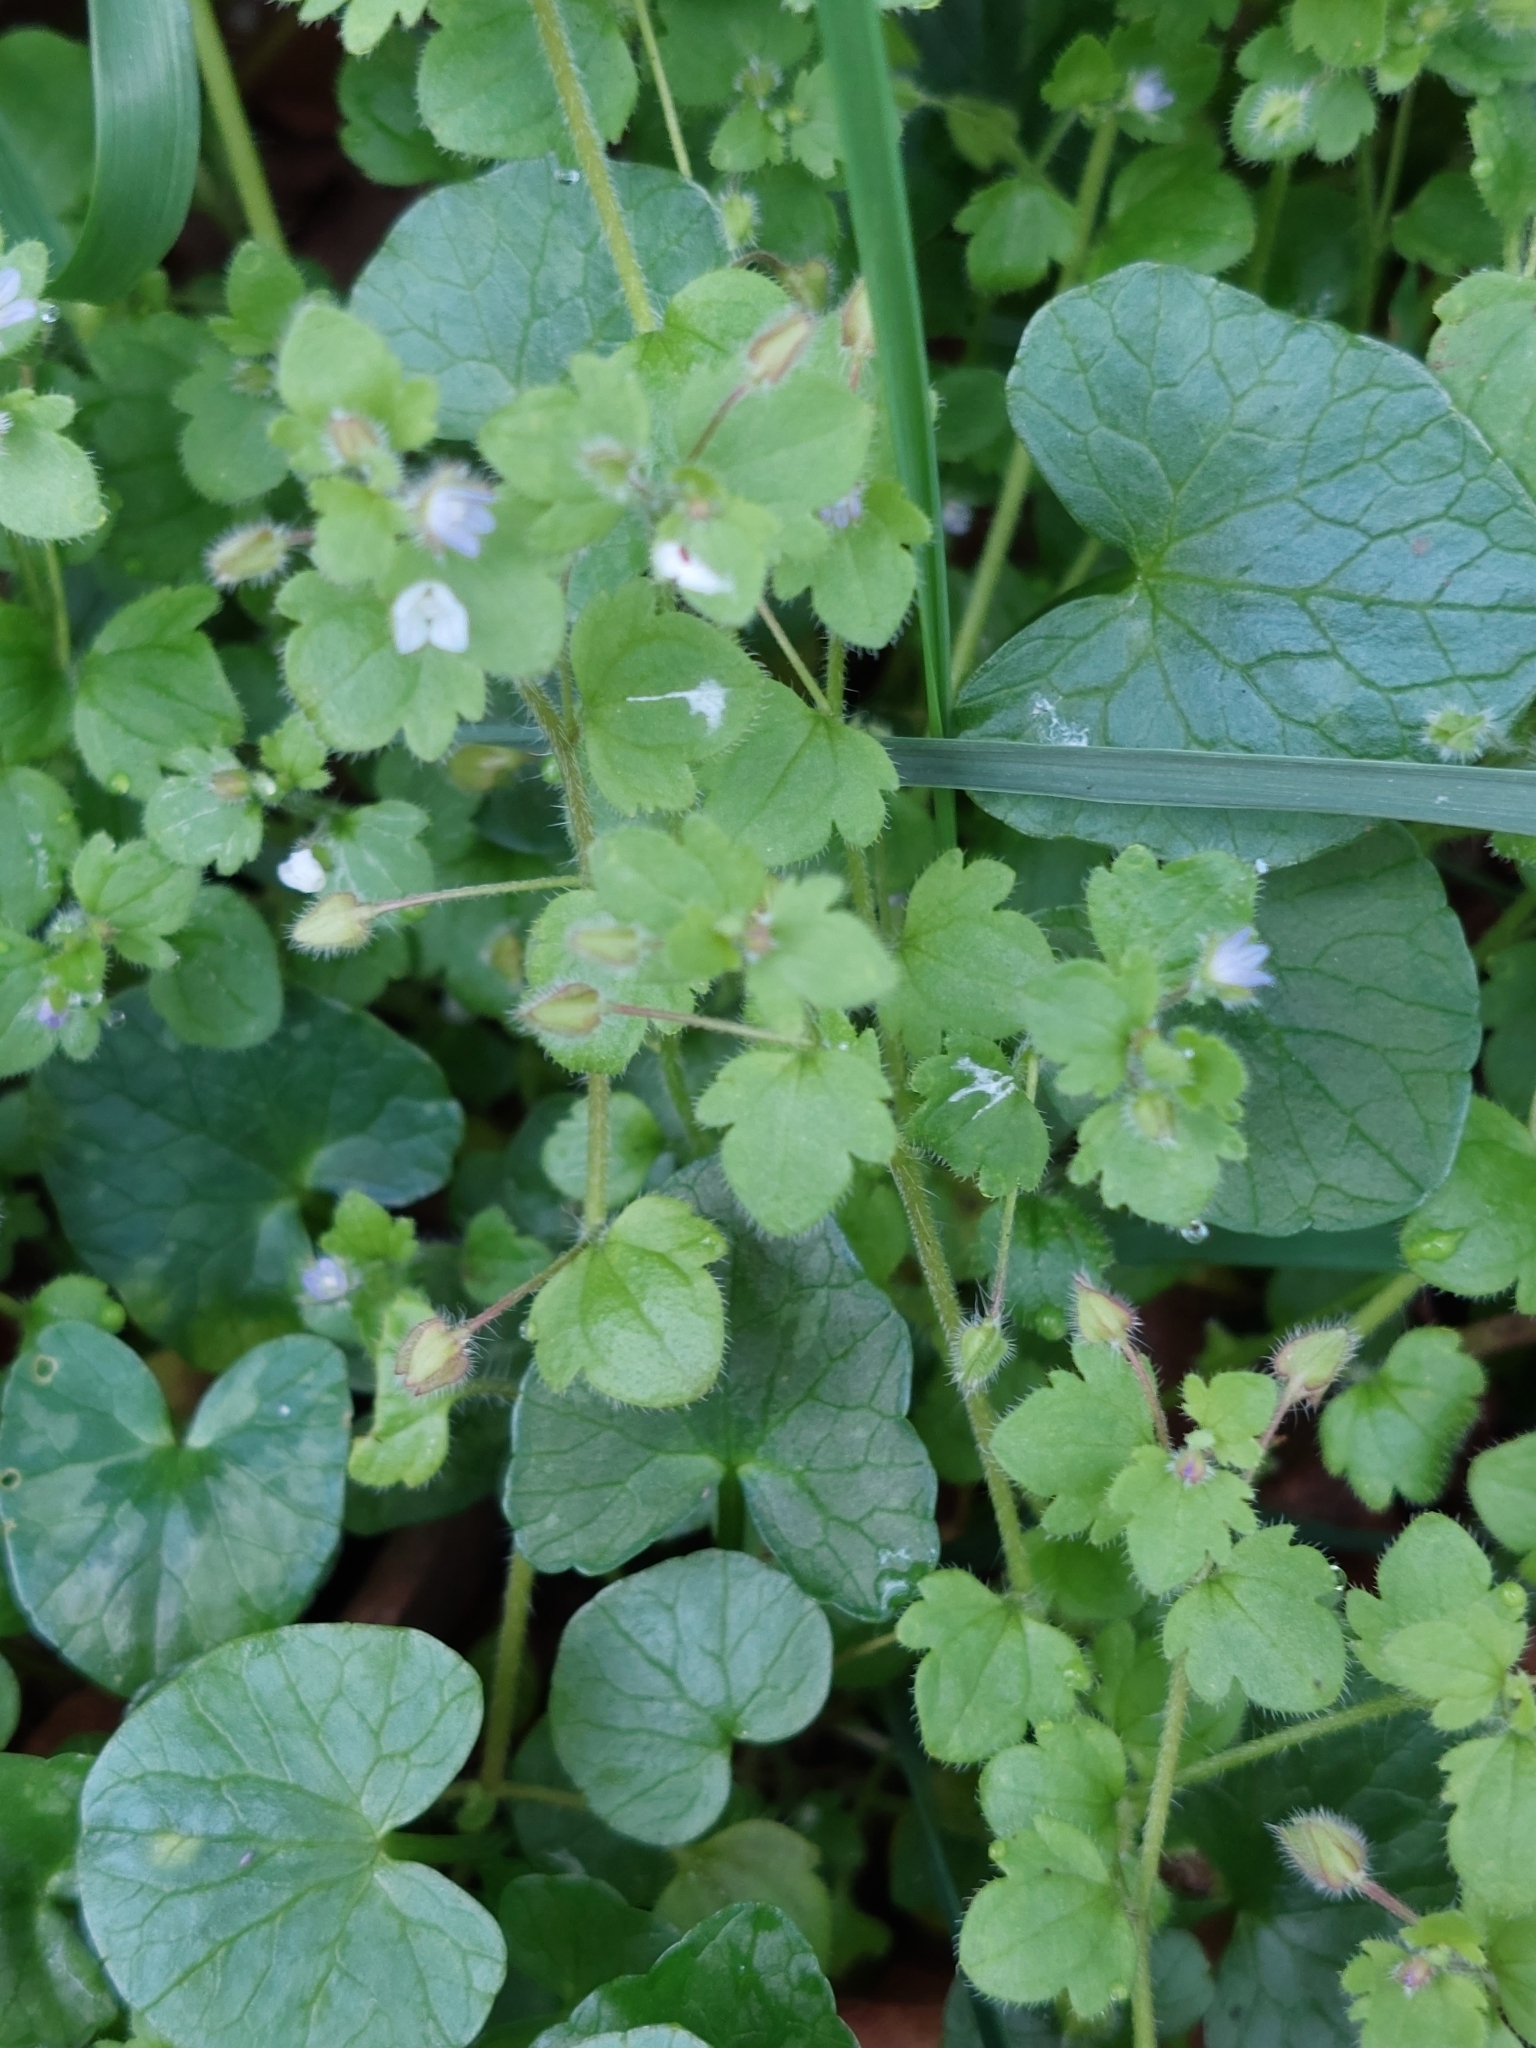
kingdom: Plantae
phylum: Tracheophyta
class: Magnoliopsida
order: Lamiales
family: Plantaginaceae
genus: Veronica
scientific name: Veronica sublobata
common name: False ivy-leaved speedwell
